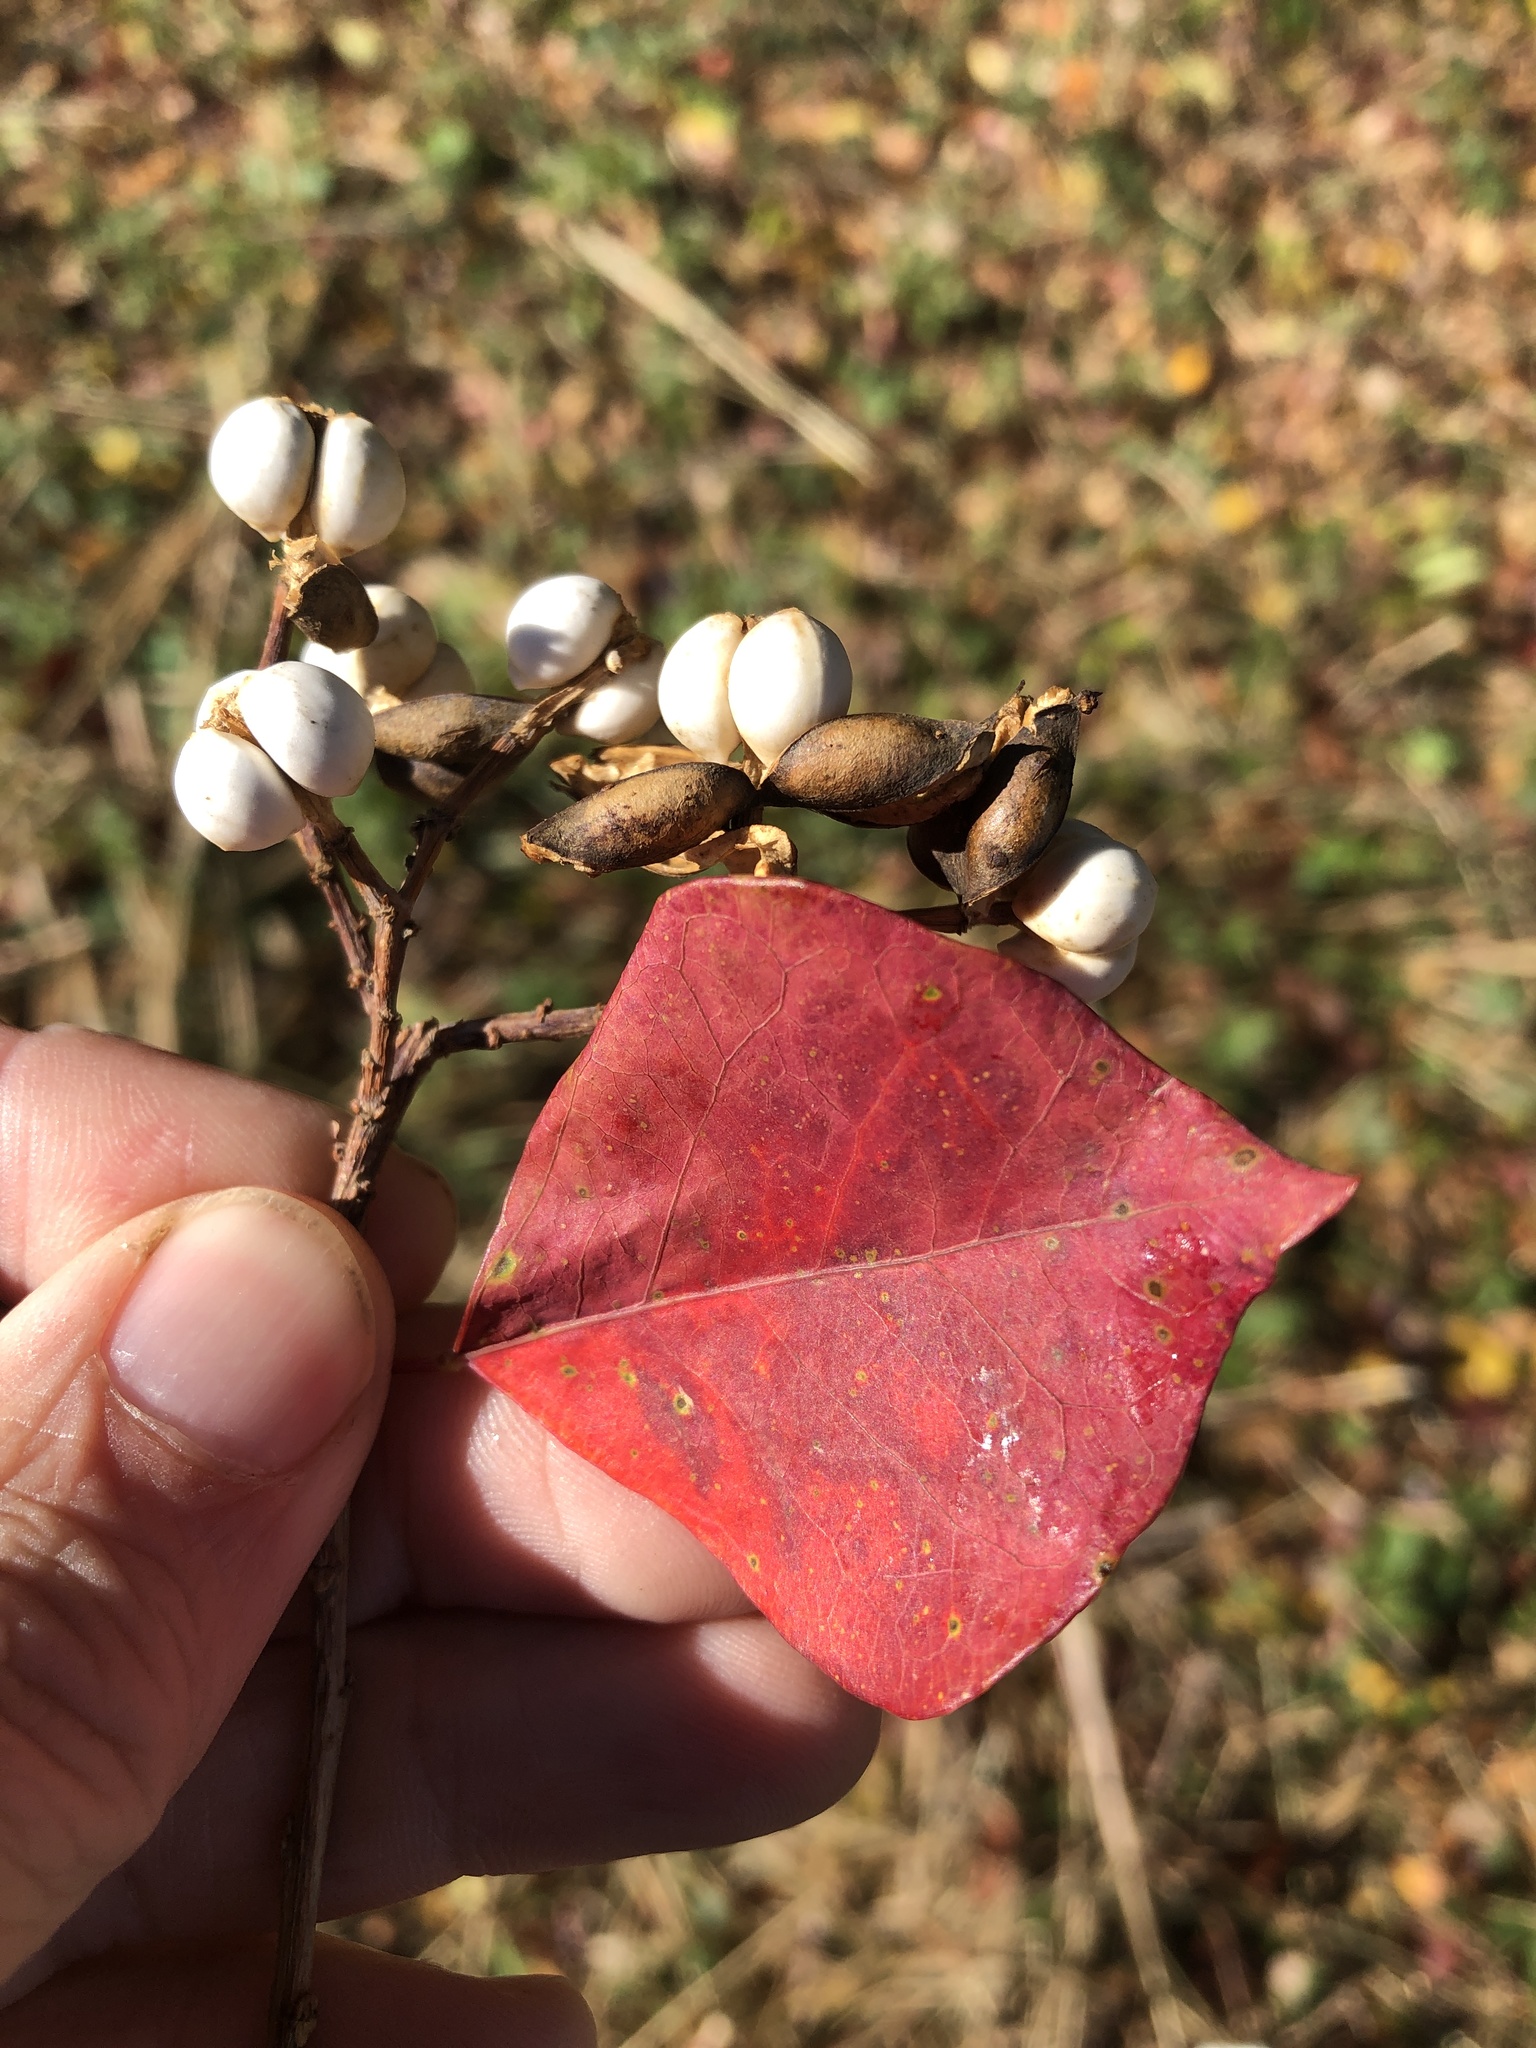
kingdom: Plantae
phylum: Tracheophyta
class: Magnoliopsida
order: Malpighiales
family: Euphorbiaceae
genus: Triadica
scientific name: Triadica sebifera
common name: Chinese tallow
